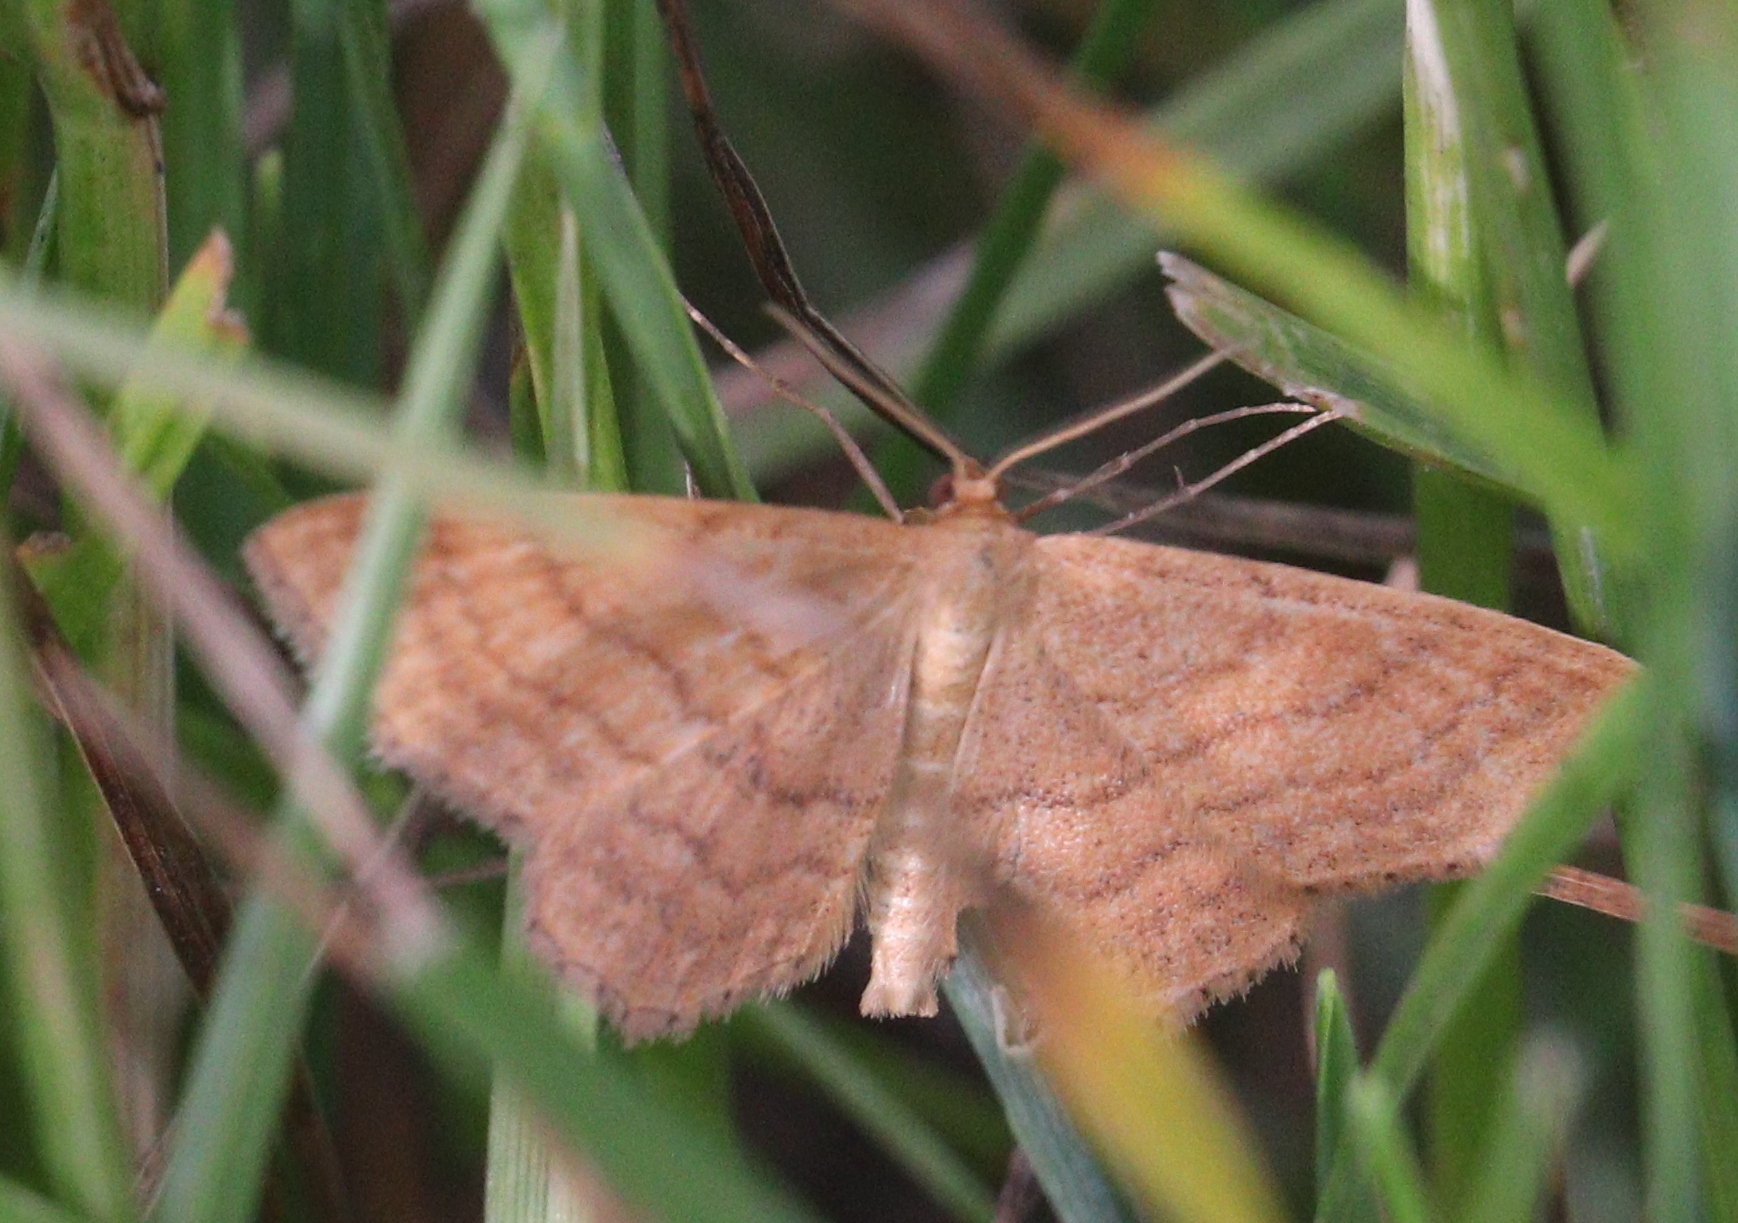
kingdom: Animalia
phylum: Arthropoda
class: Insecta
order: Lepidoptera
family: Geometridae
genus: Idaea
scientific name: Idaea ochrata
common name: Bright wave
